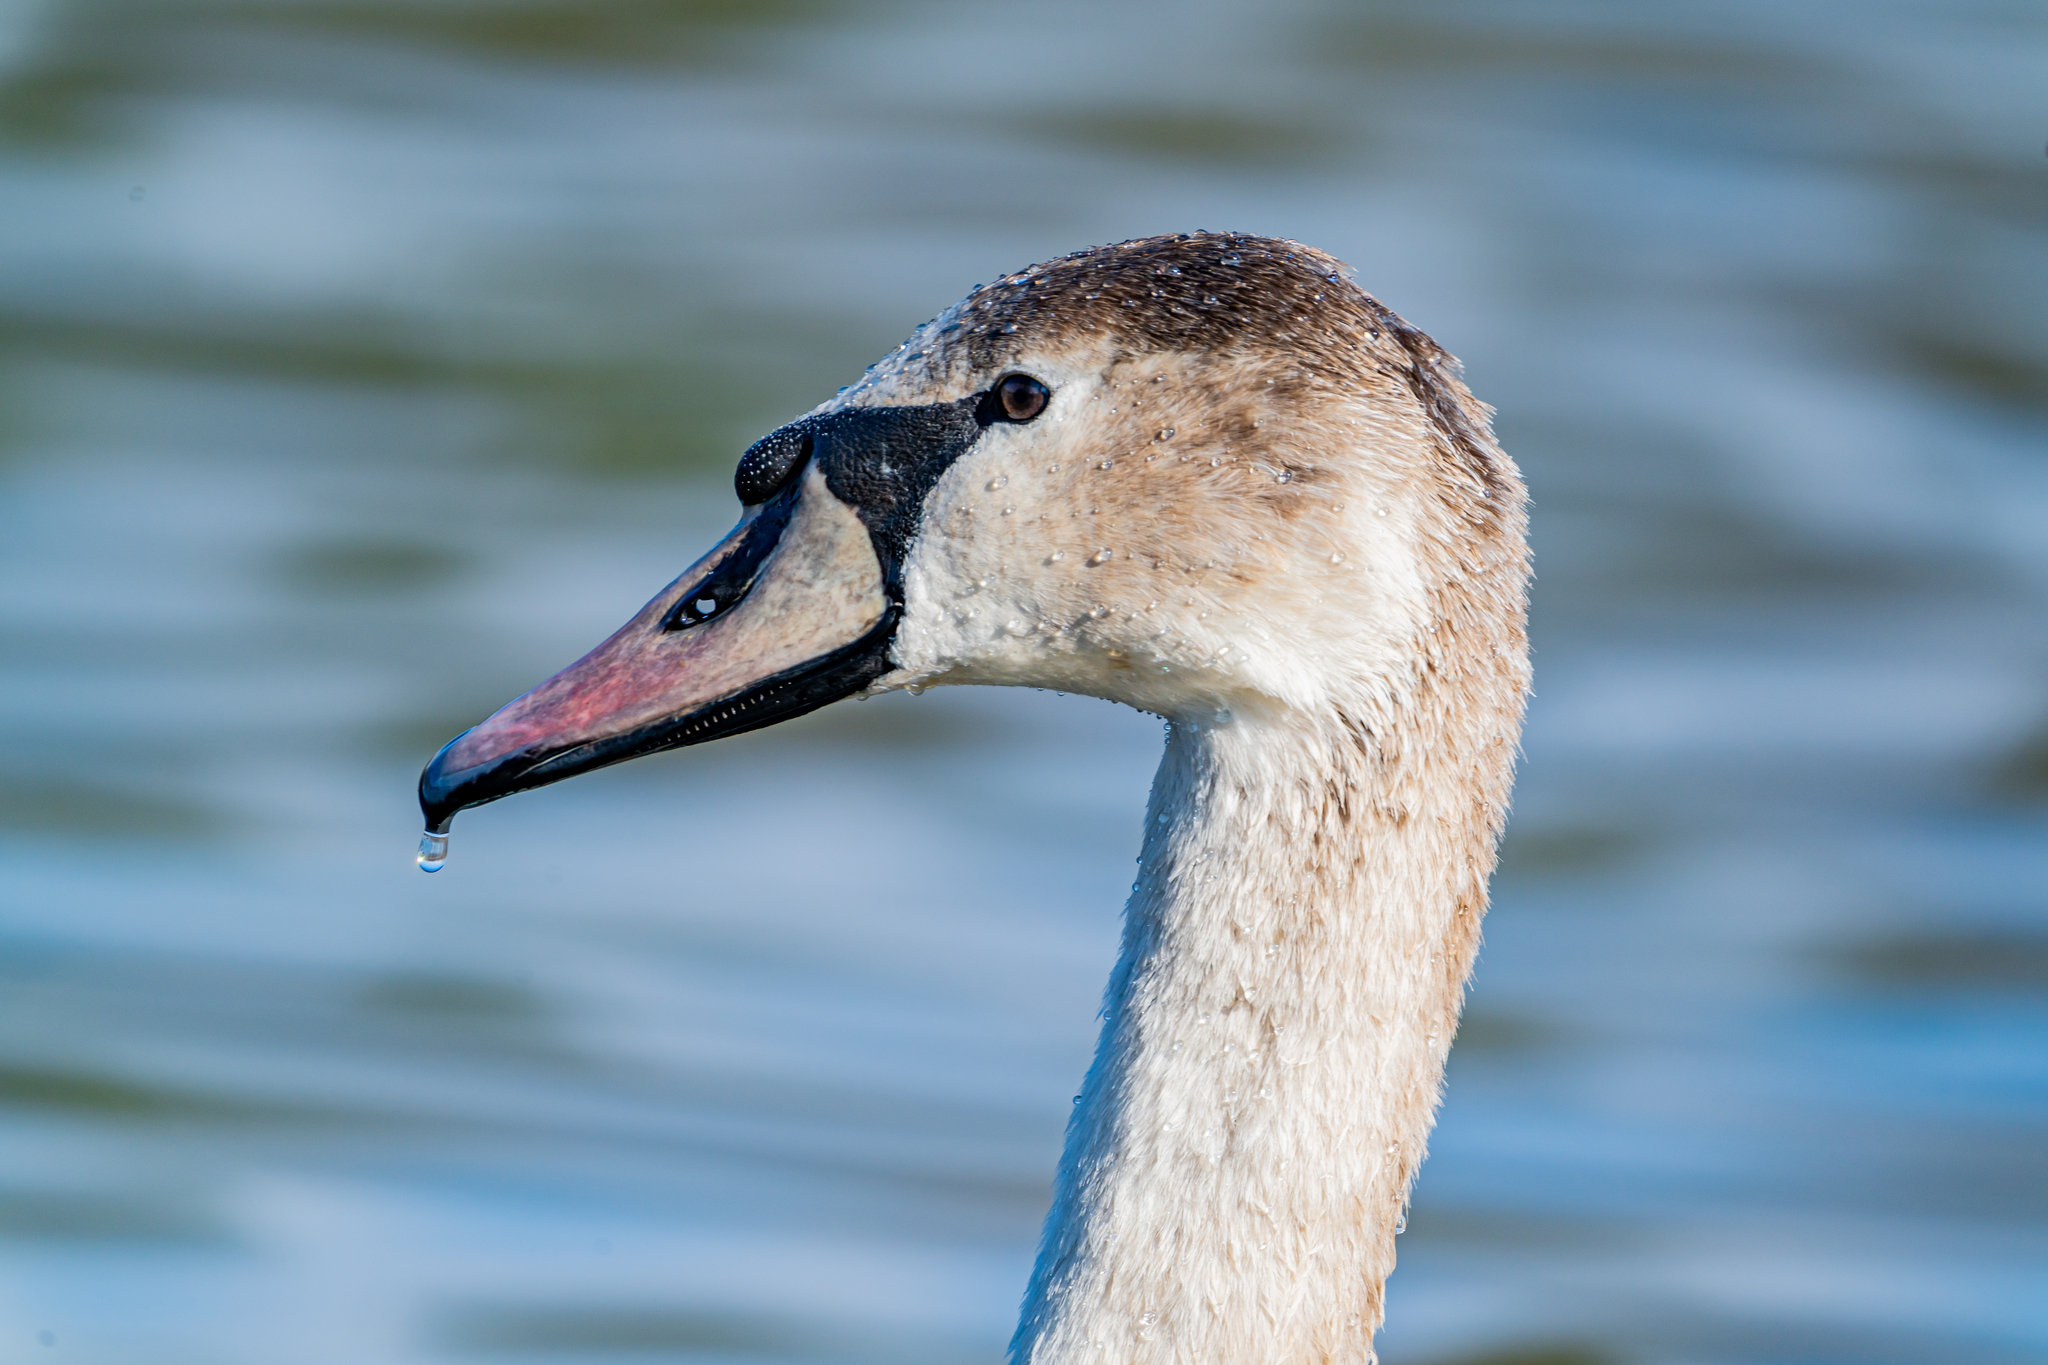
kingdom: Animalia
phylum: Chordata
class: Aves
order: Anseriformes
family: Anatidae
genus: Cygnus
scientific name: Cygnus olor
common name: Mute swan
